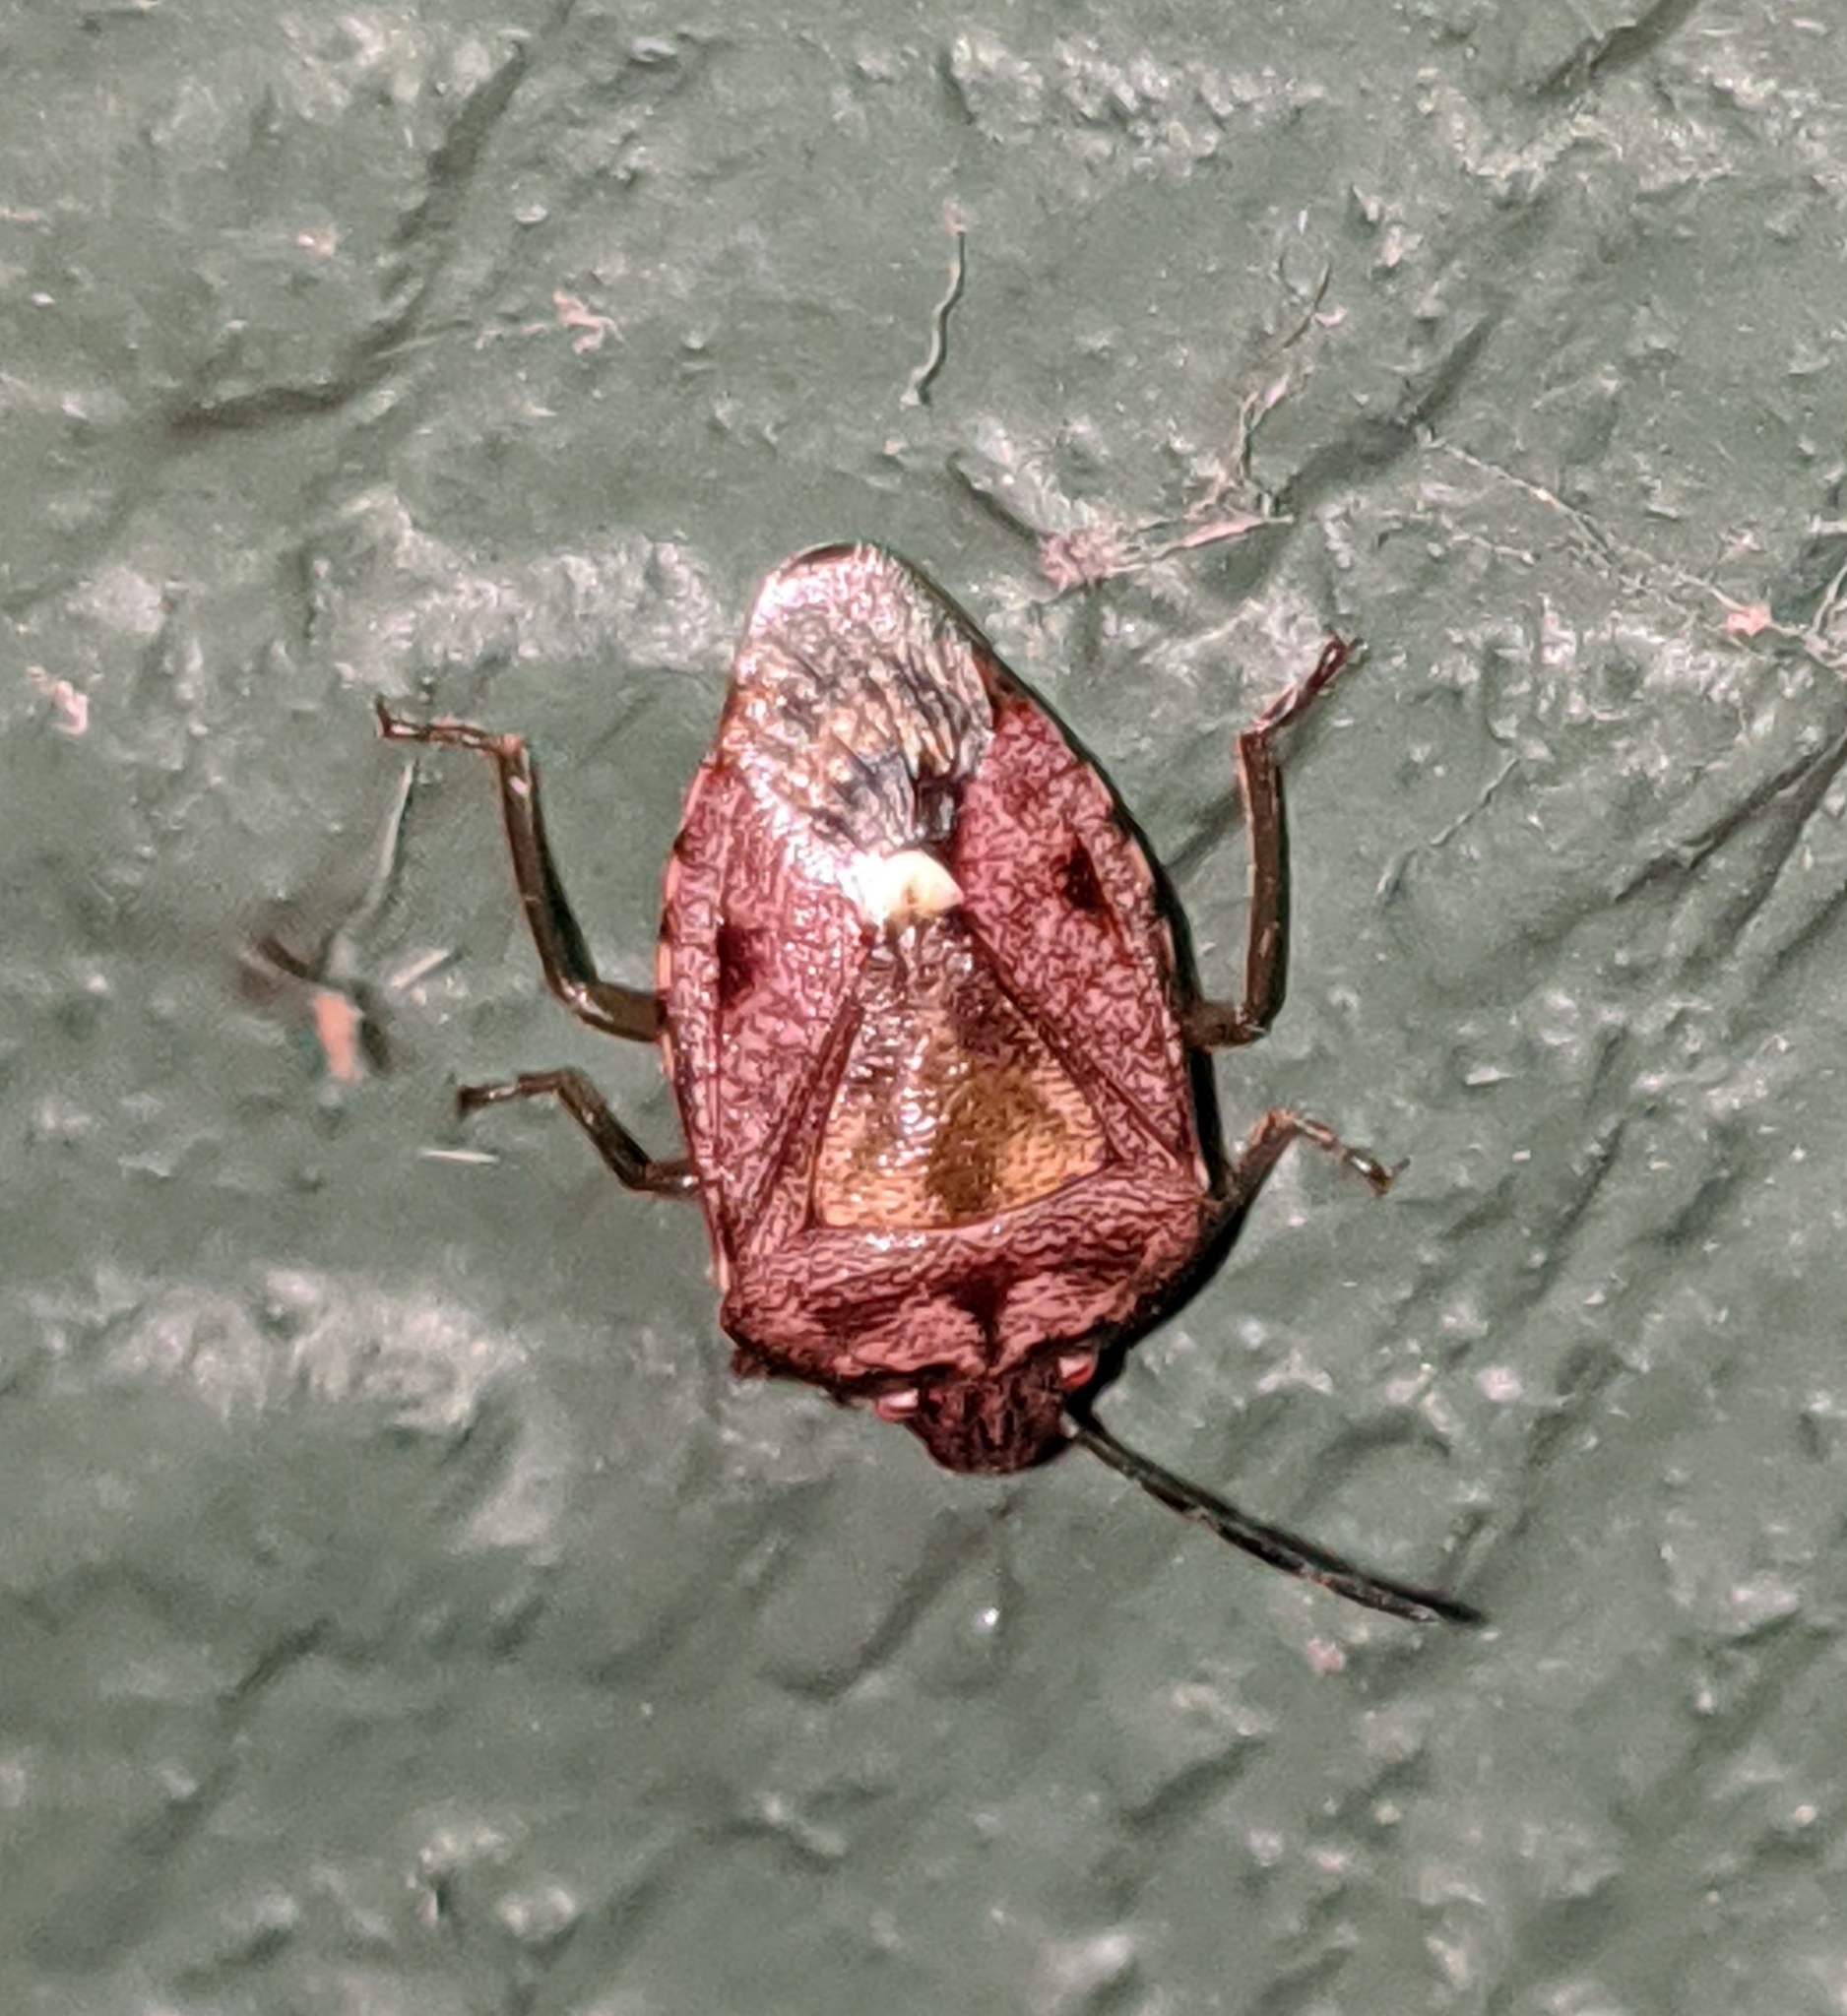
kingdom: Animalia
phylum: Arthropoda
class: Insecta
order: Hemiptera
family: Pentatomidae
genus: Banasa
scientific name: Banasa sordida
